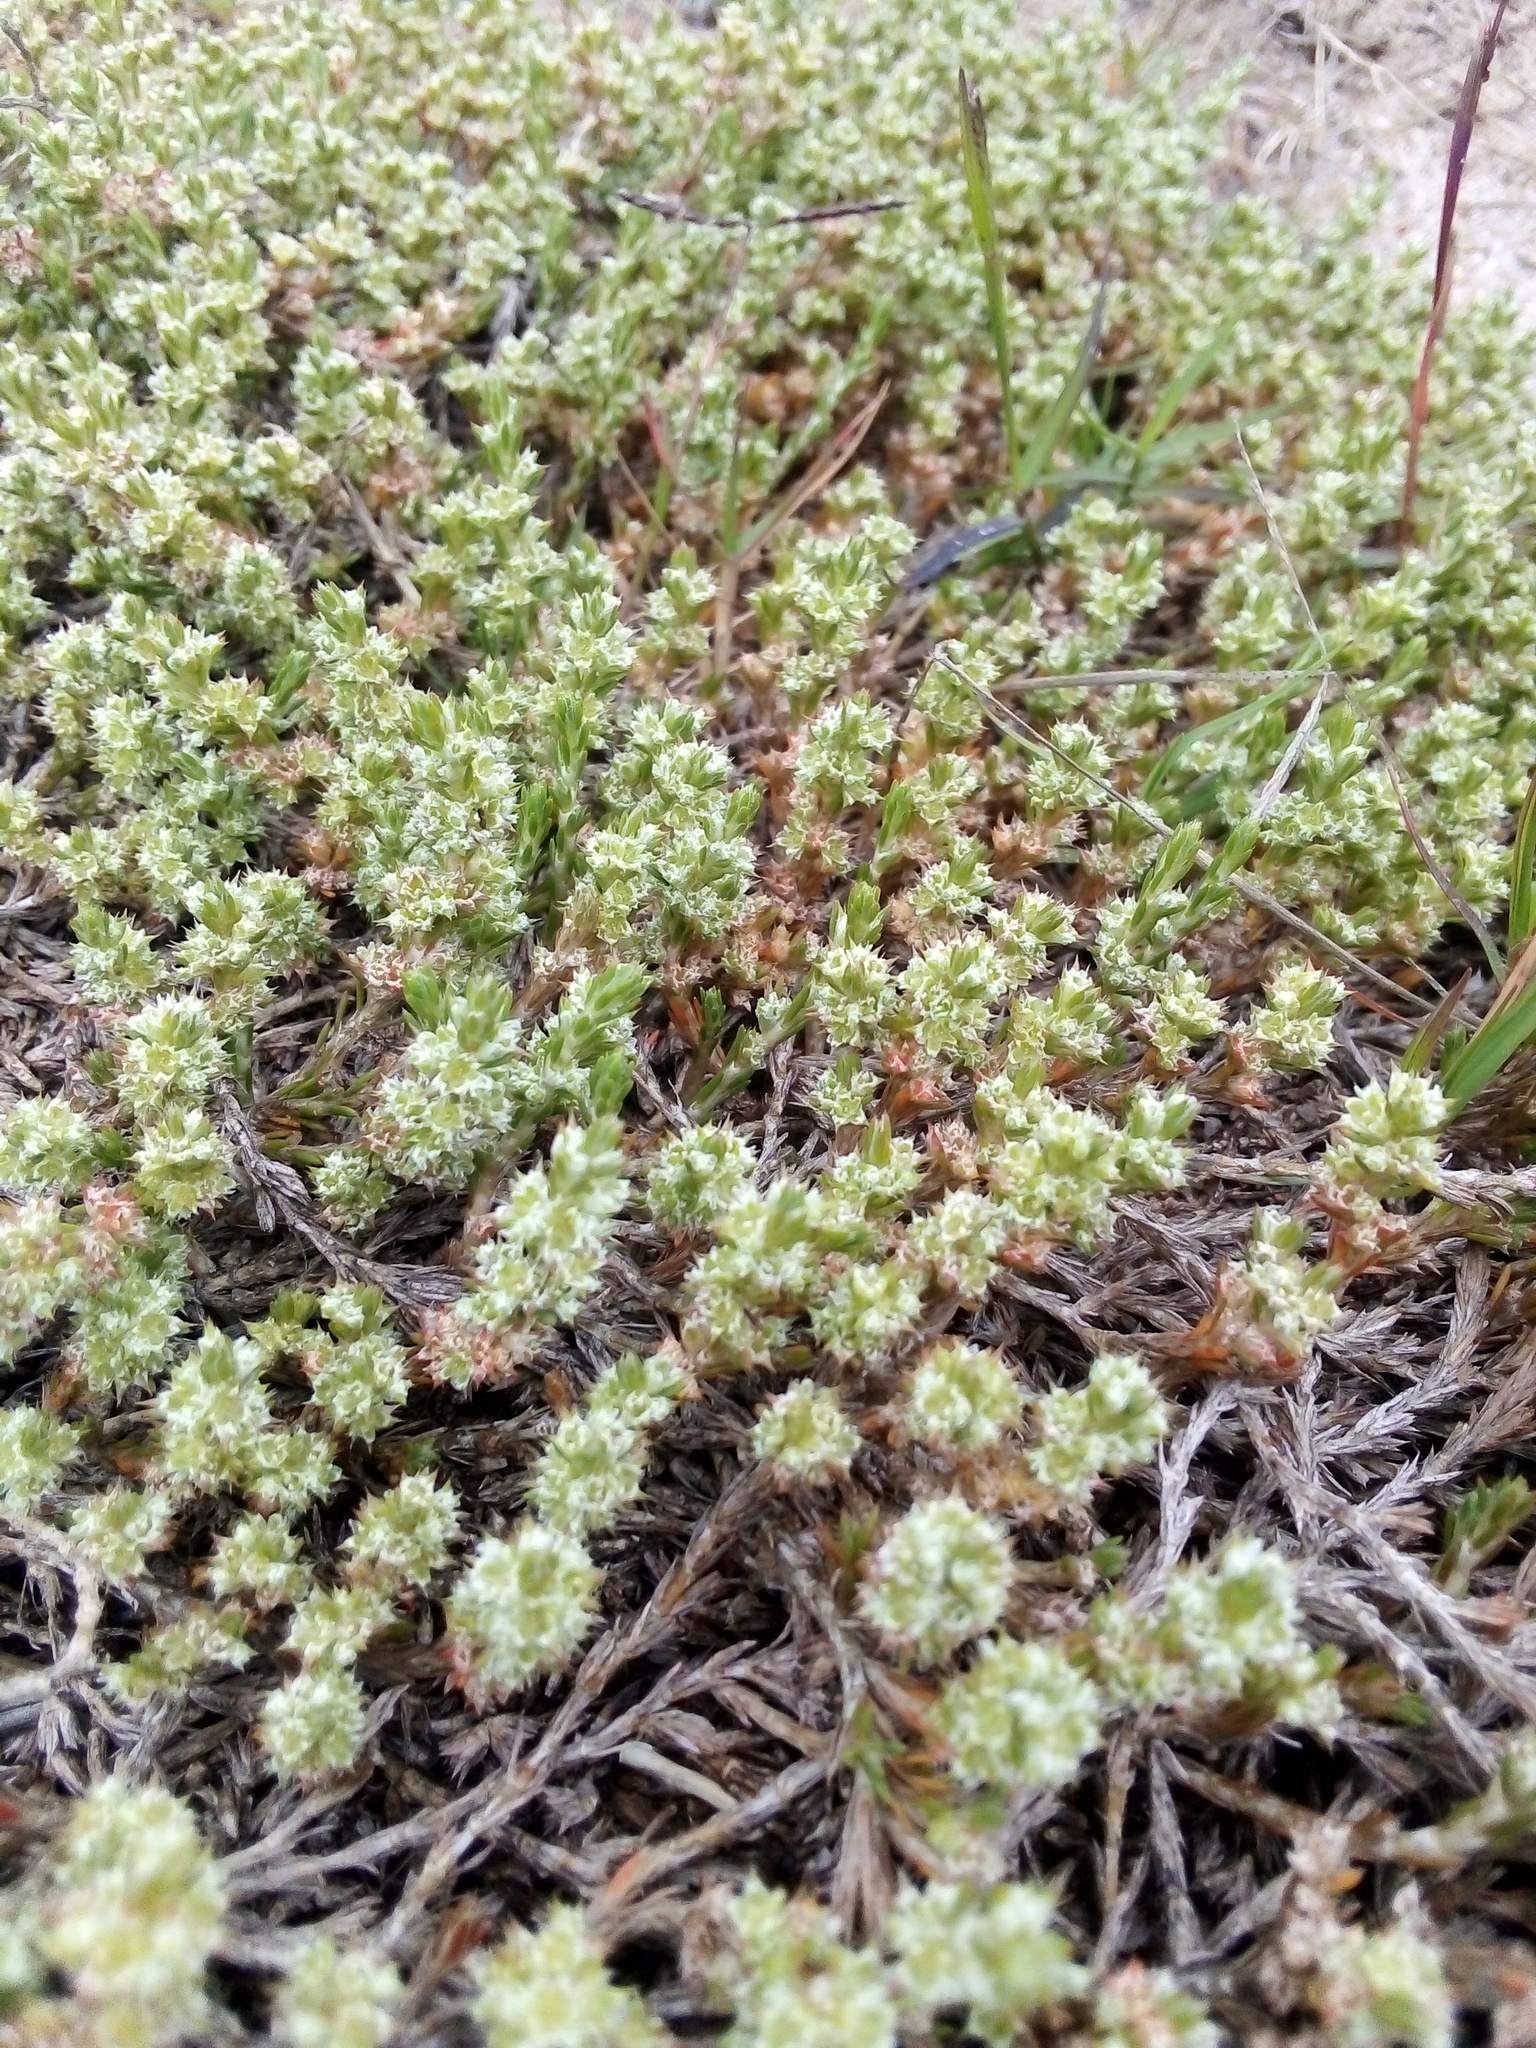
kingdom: Plantae
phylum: Tracheophyta
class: Magnoliopsida
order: Caryophyllales
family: Caryophyllaceae
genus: Cardionema
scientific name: Cardionema ramosissima
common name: Sandcarpet
